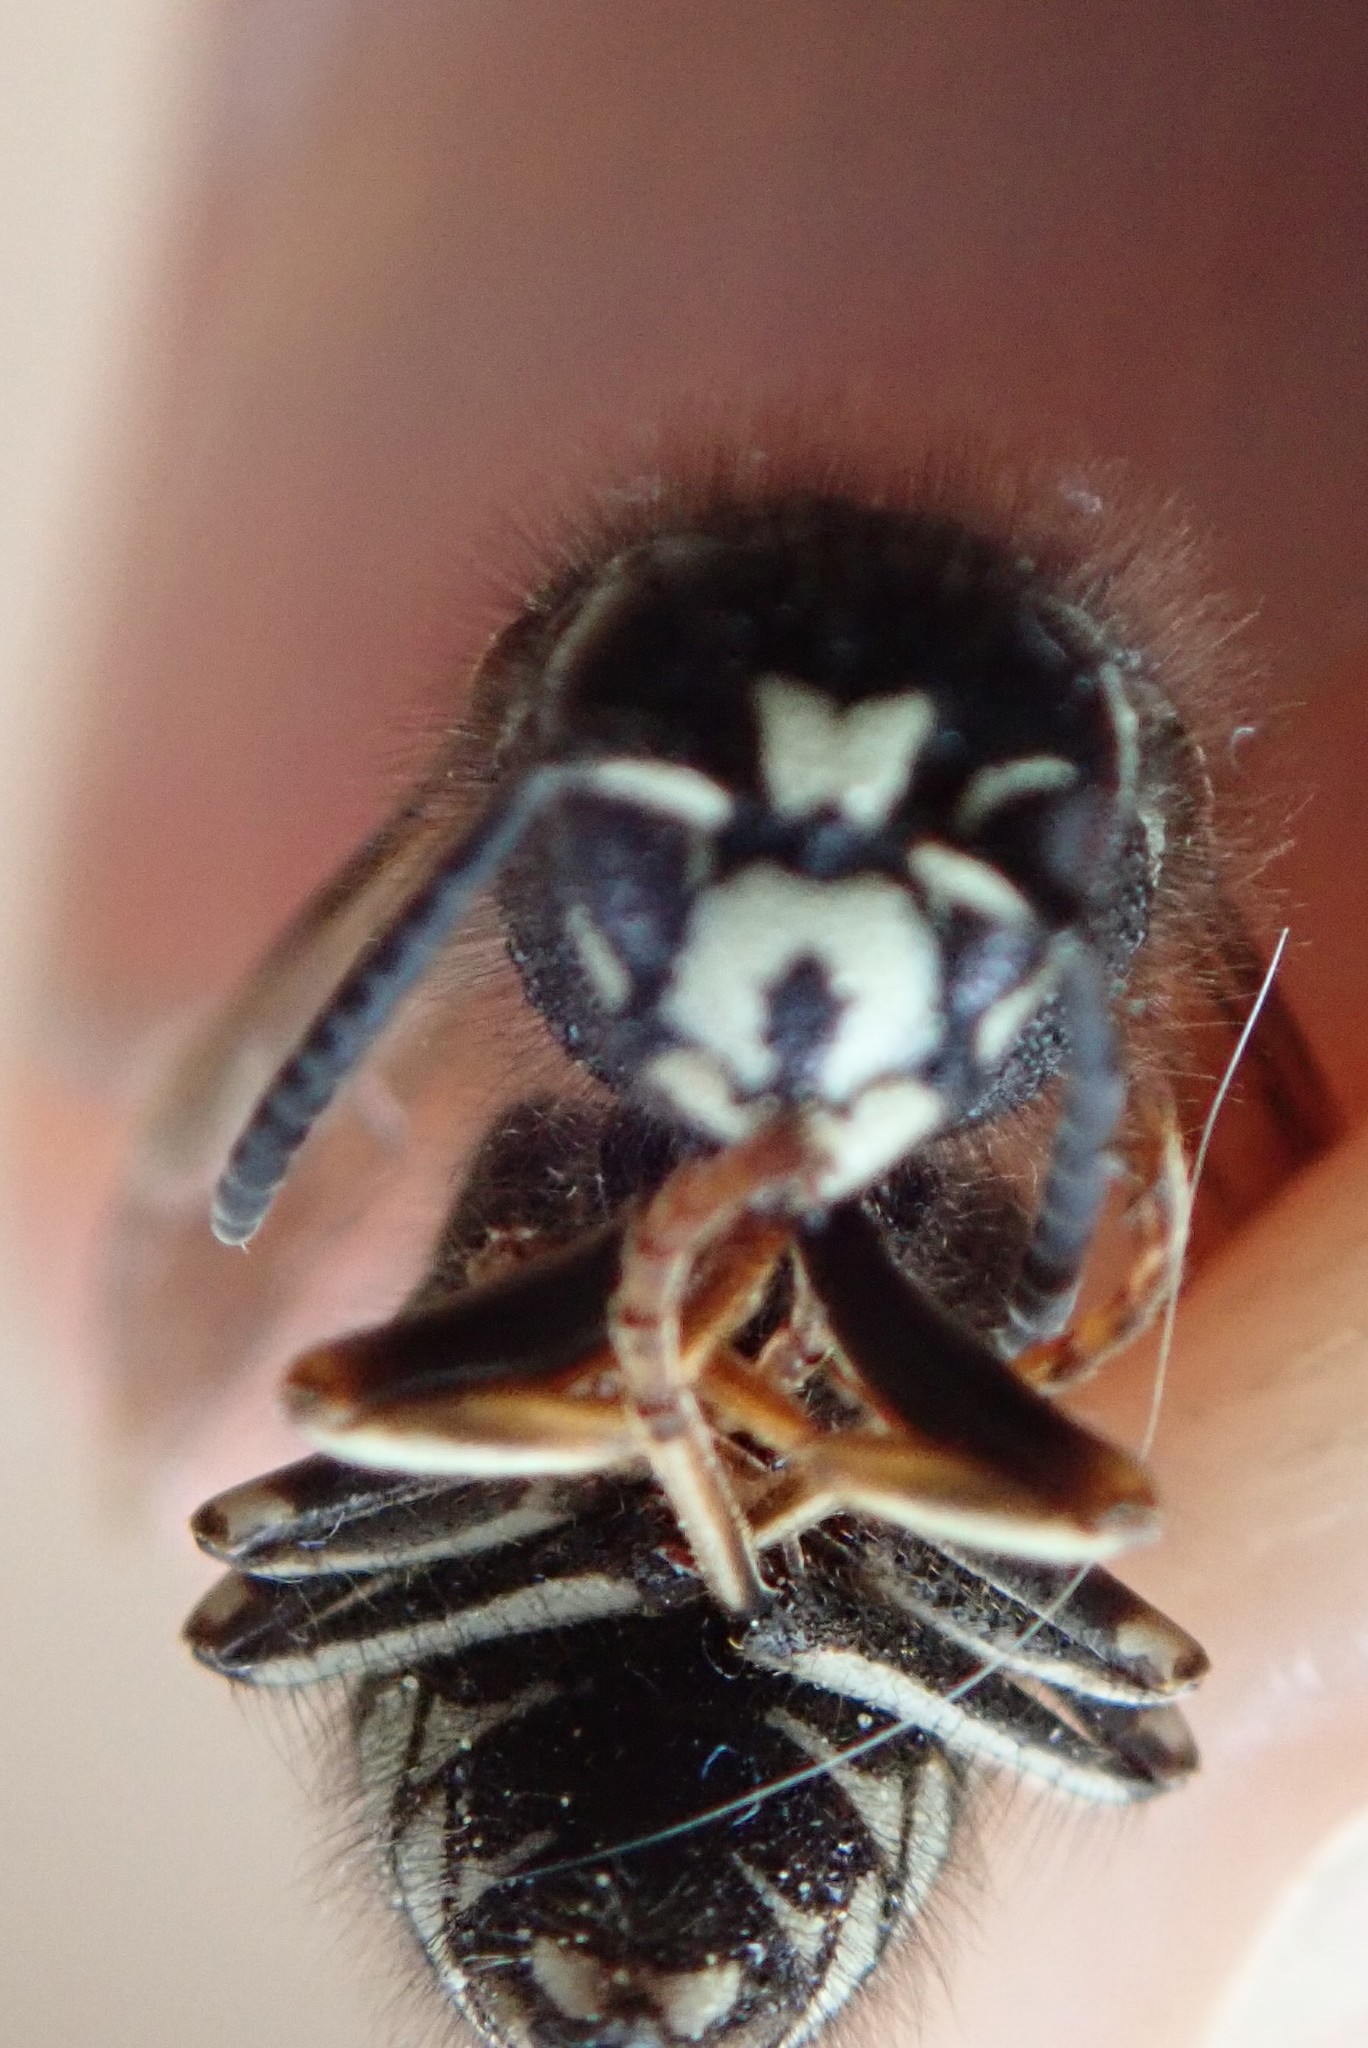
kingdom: Animalia
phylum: Arthropoda
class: Insecta
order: Hymenoptera
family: Vespidae
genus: Dolichovespula
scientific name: Dolichovespula adulterina
